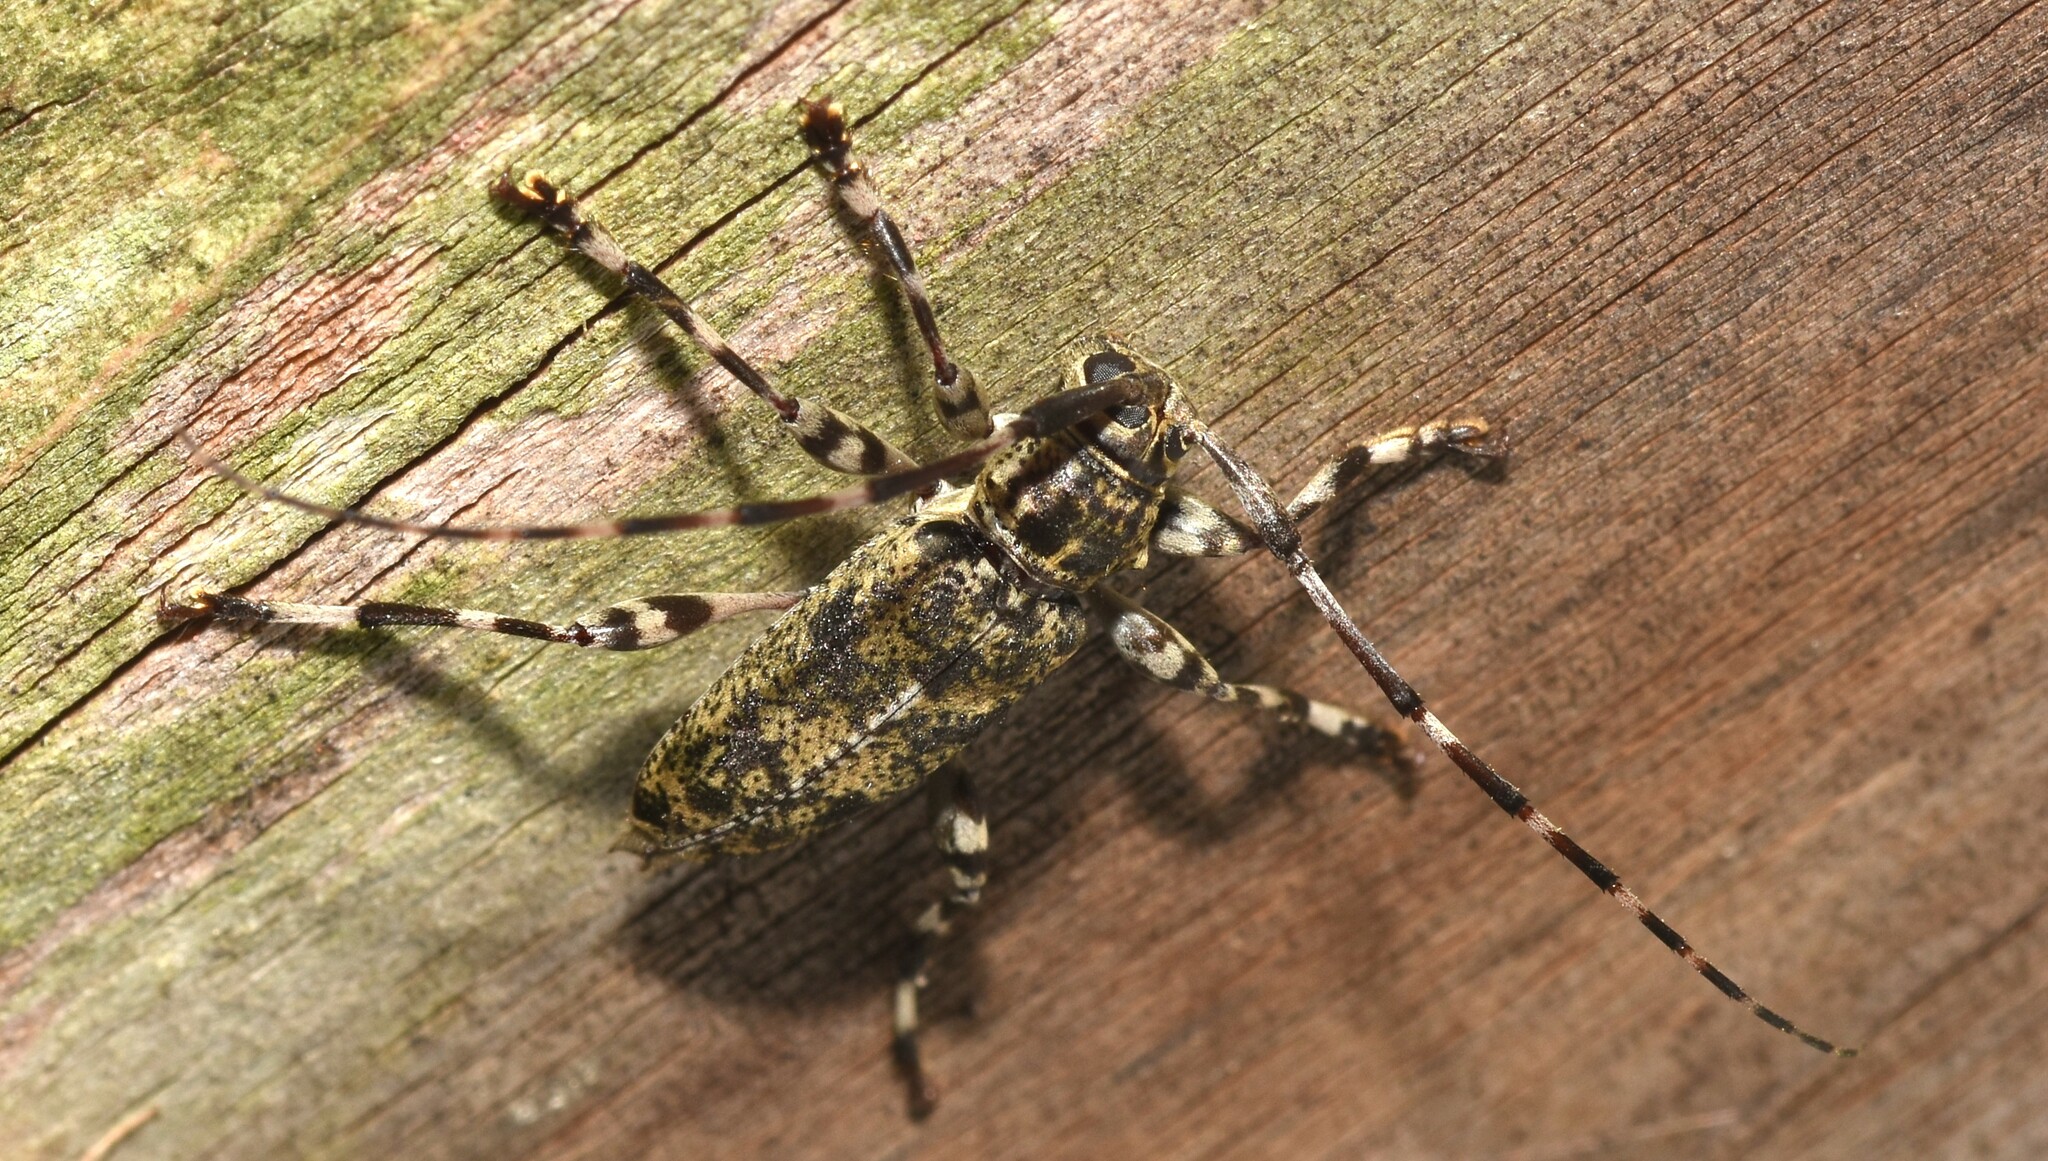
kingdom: Animalia
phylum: Arthropoda
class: Insecta
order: Coleoptera
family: Cerambycidae
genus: Graphisurus
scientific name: Graphisurus fasciatus
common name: Banded graphisurus
